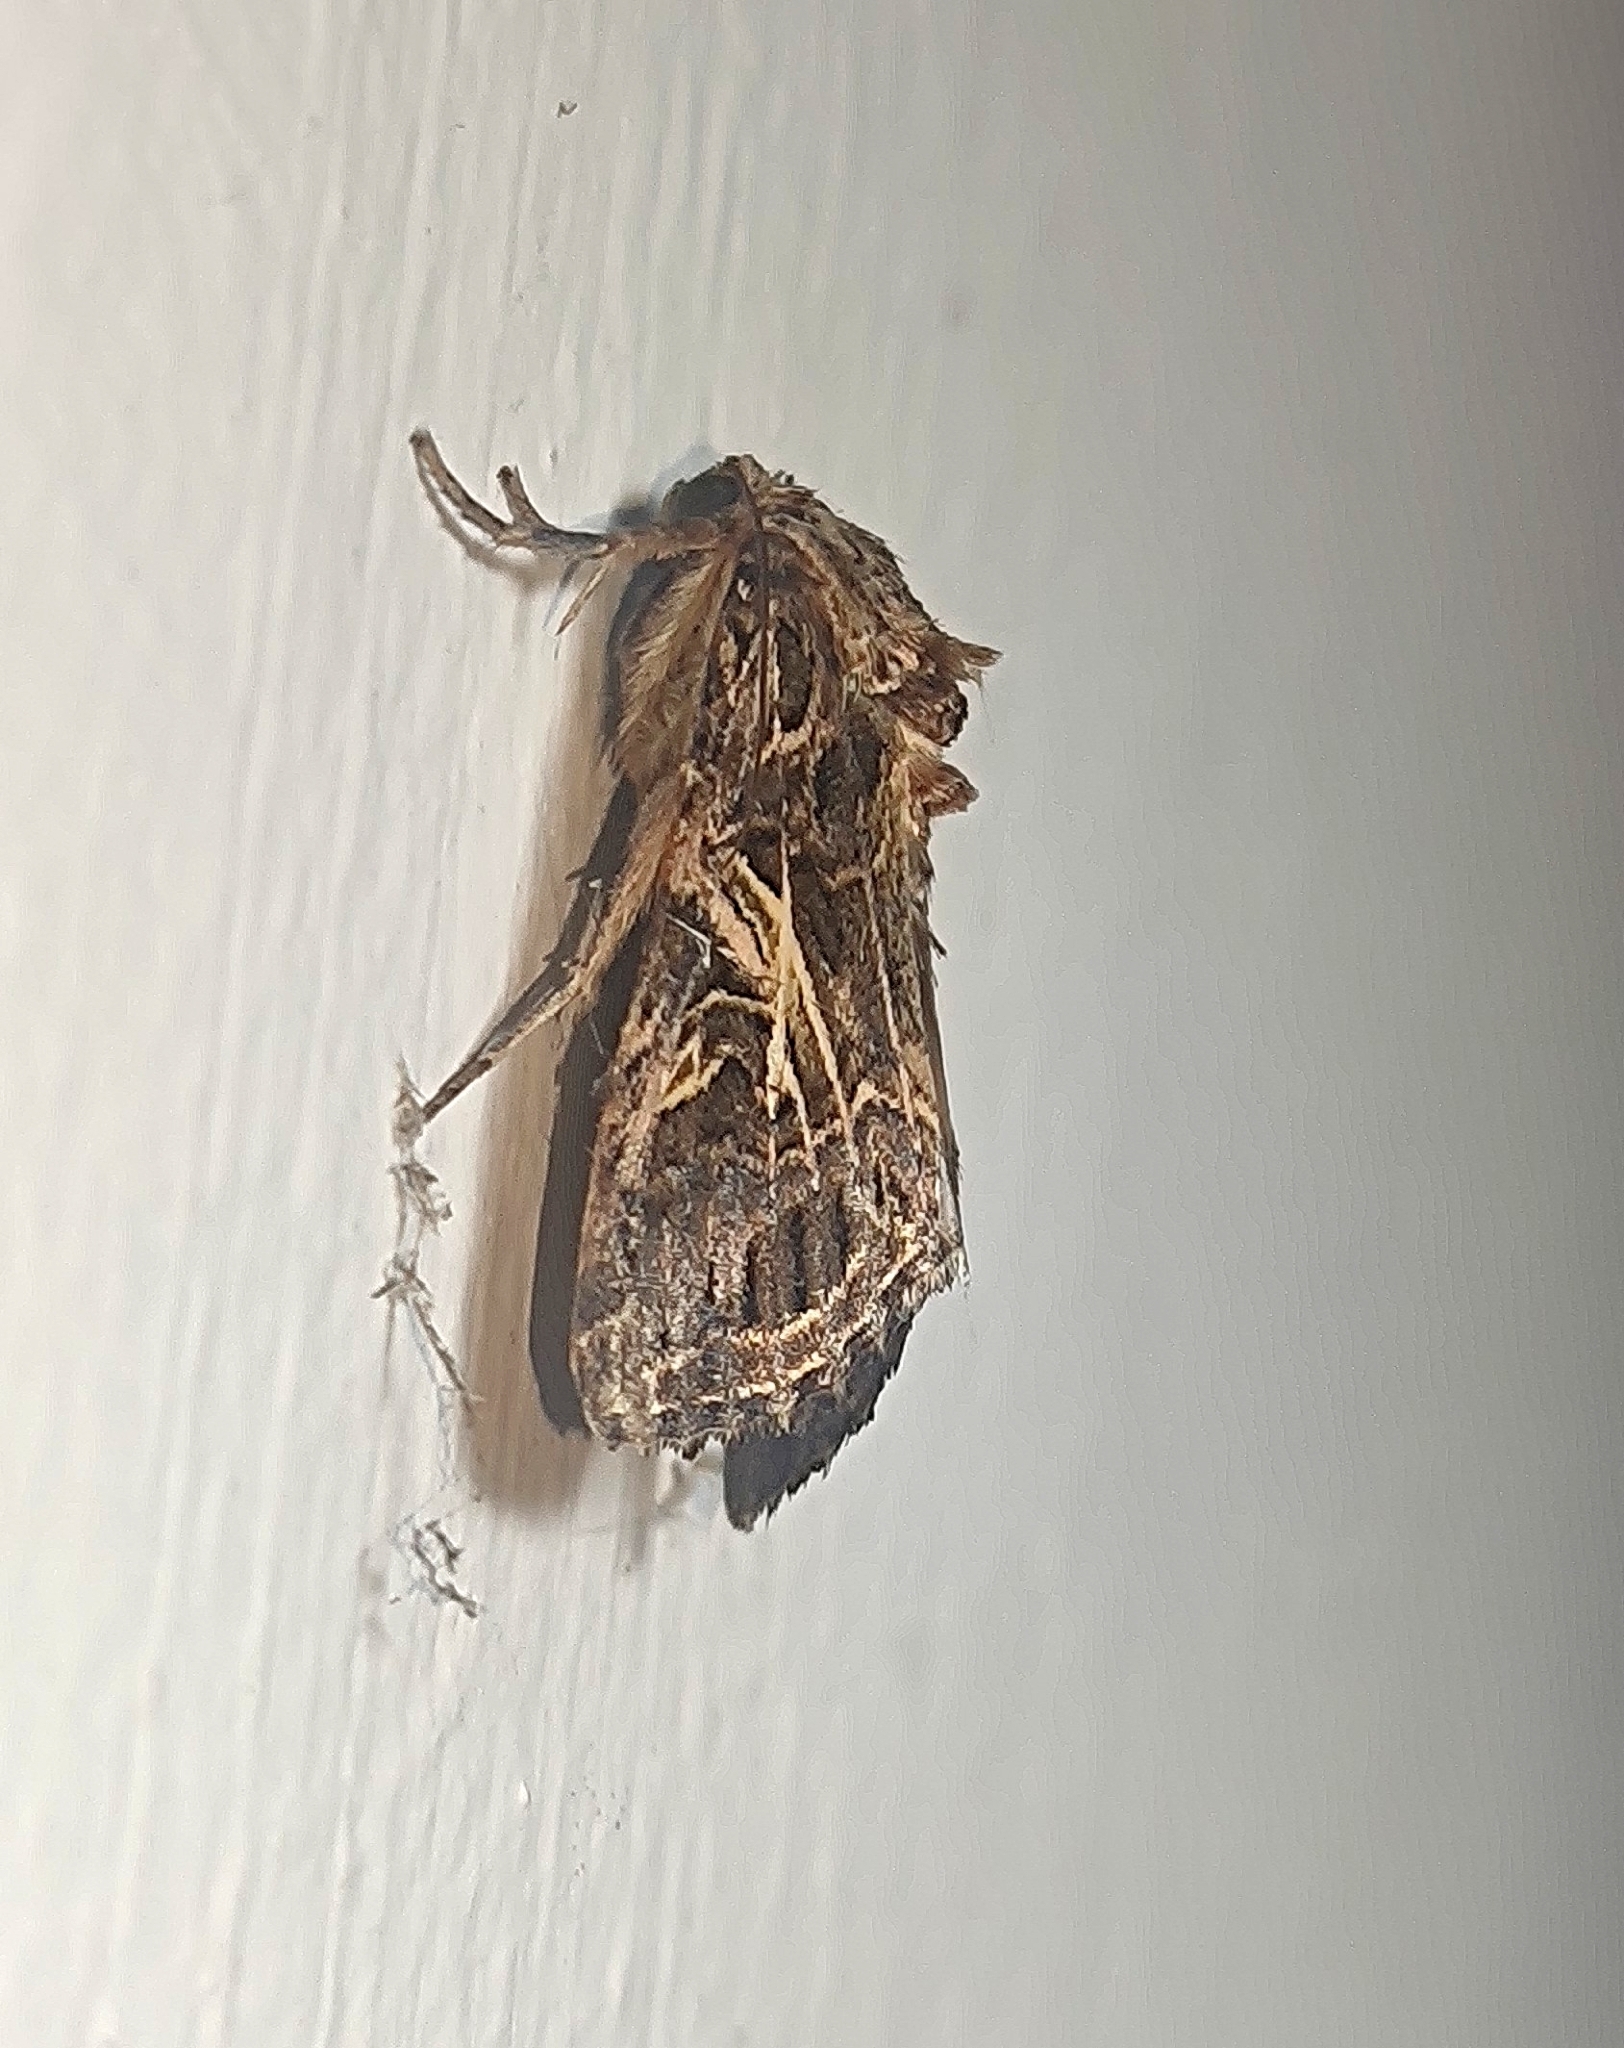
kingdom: Animalia
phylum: Arthropoda
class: Insecta
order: Lepidoptera
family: Noctuidae
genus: Spodoptera
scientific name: Spodoptera litura
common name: Asian cotton leafworm
